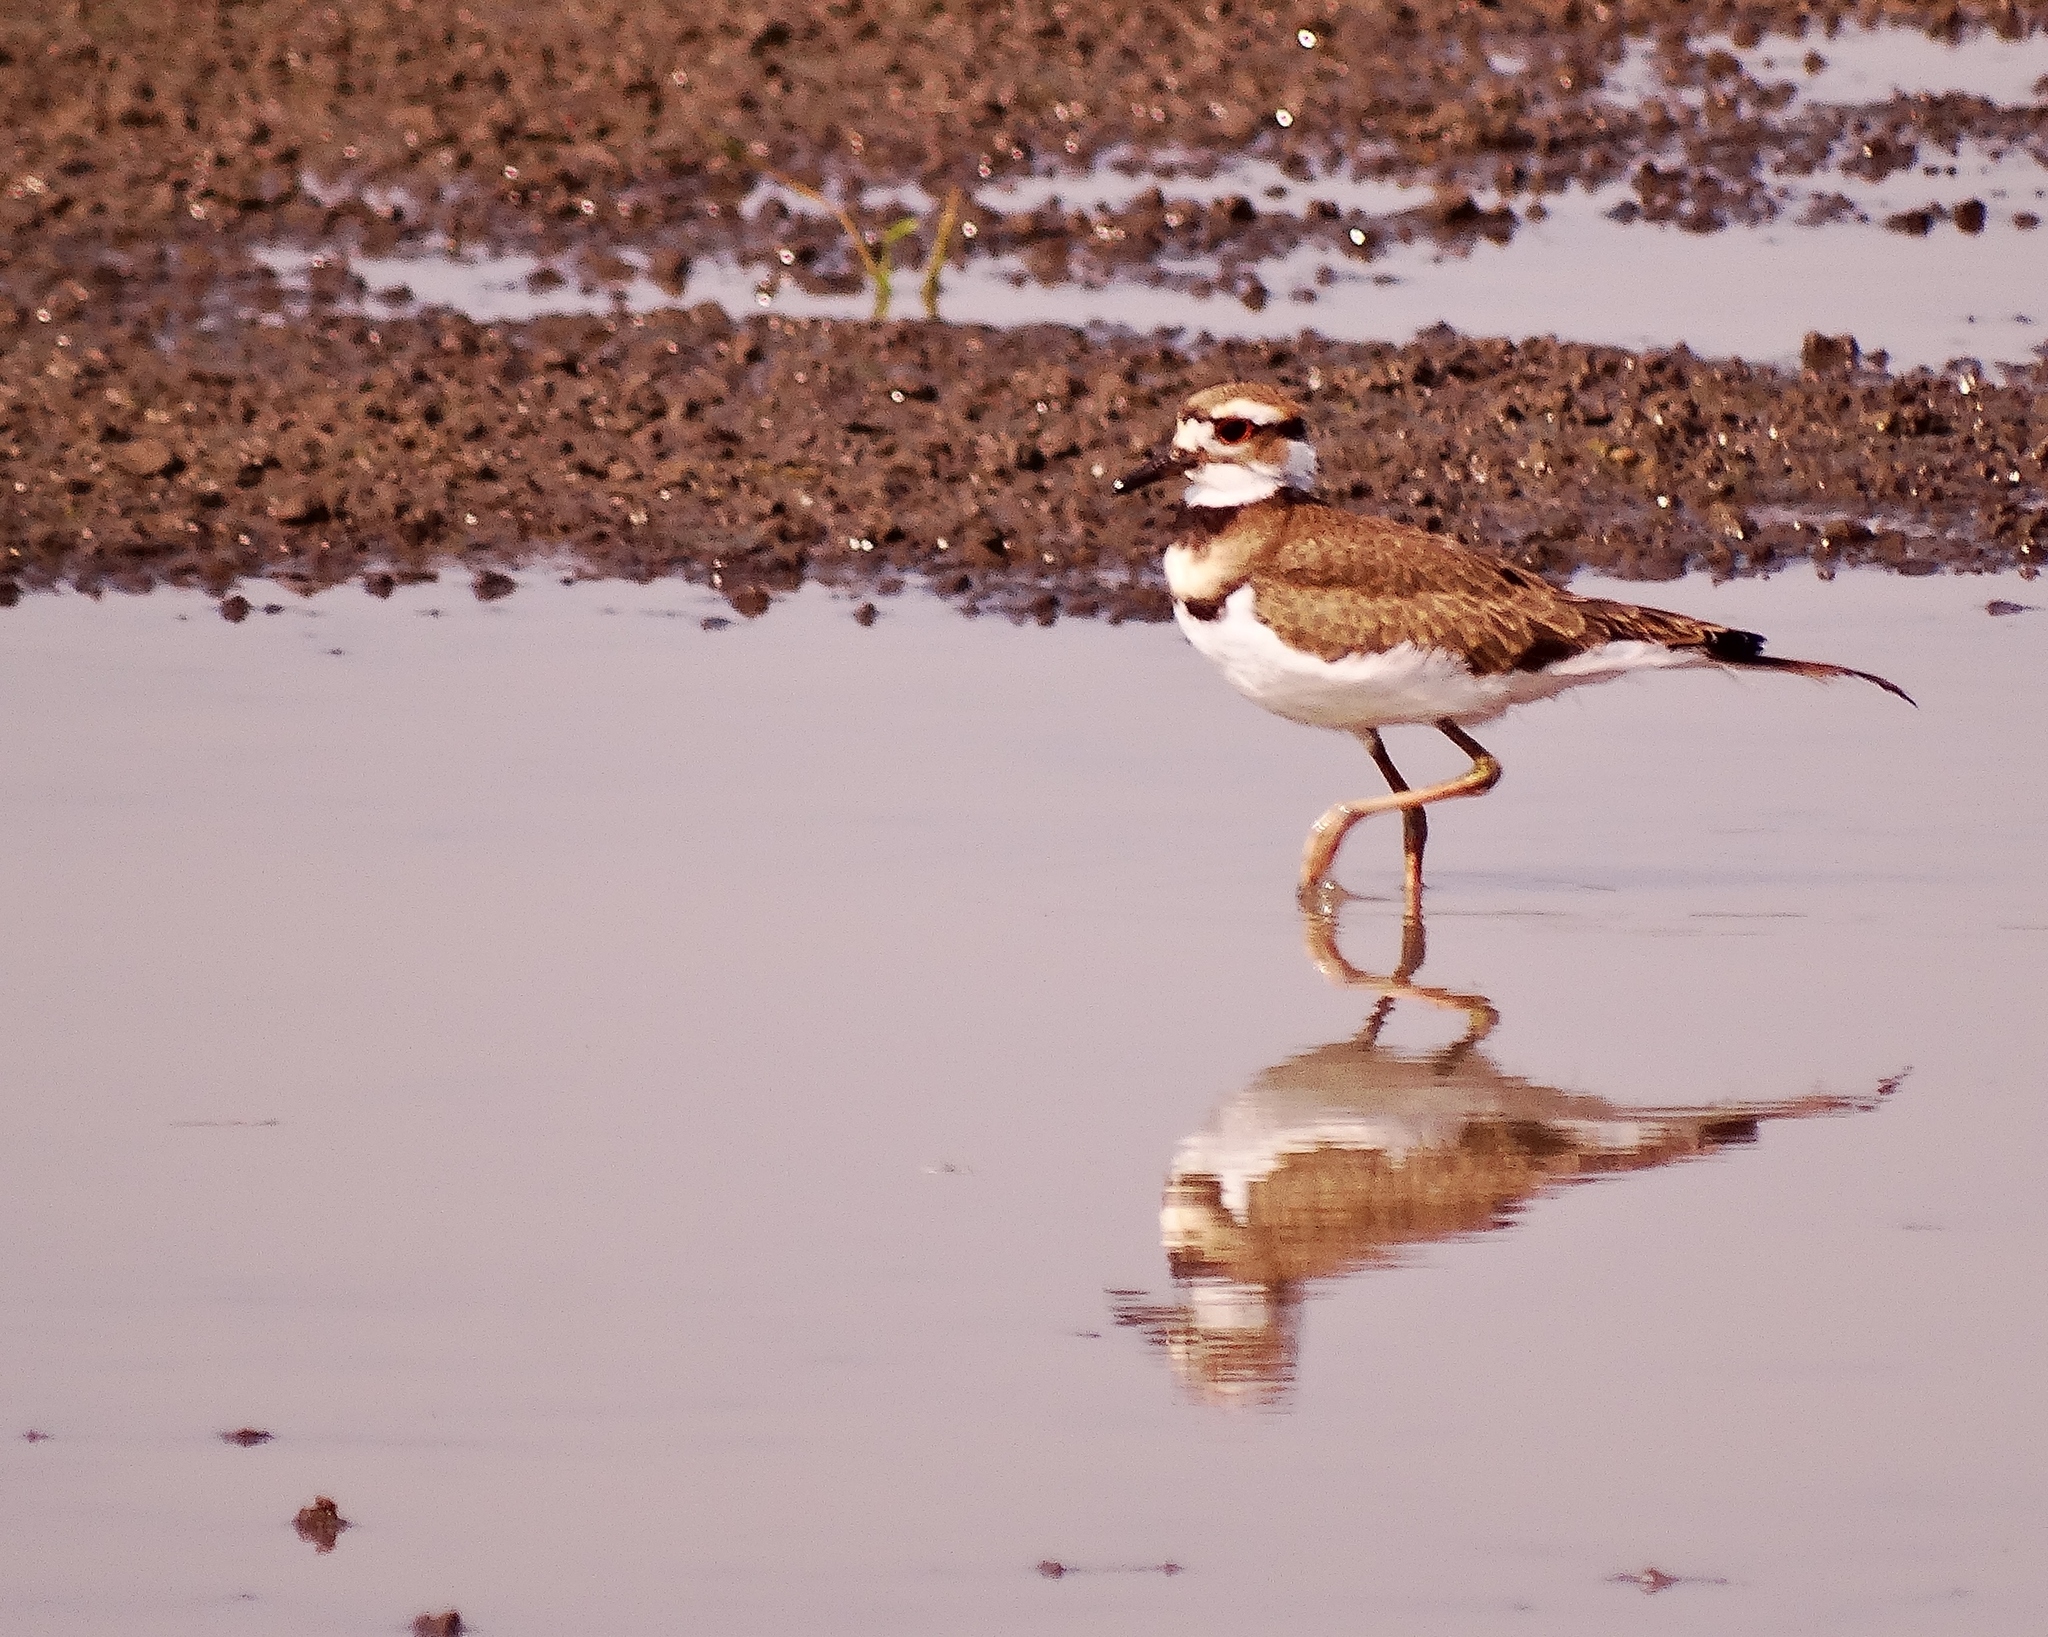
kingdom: Animalia
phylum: Chordata
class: Aves
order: Charadriiformes
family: Charadriidae
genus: Charadrius
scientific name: Charadrius vociferus
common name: Killdeer
